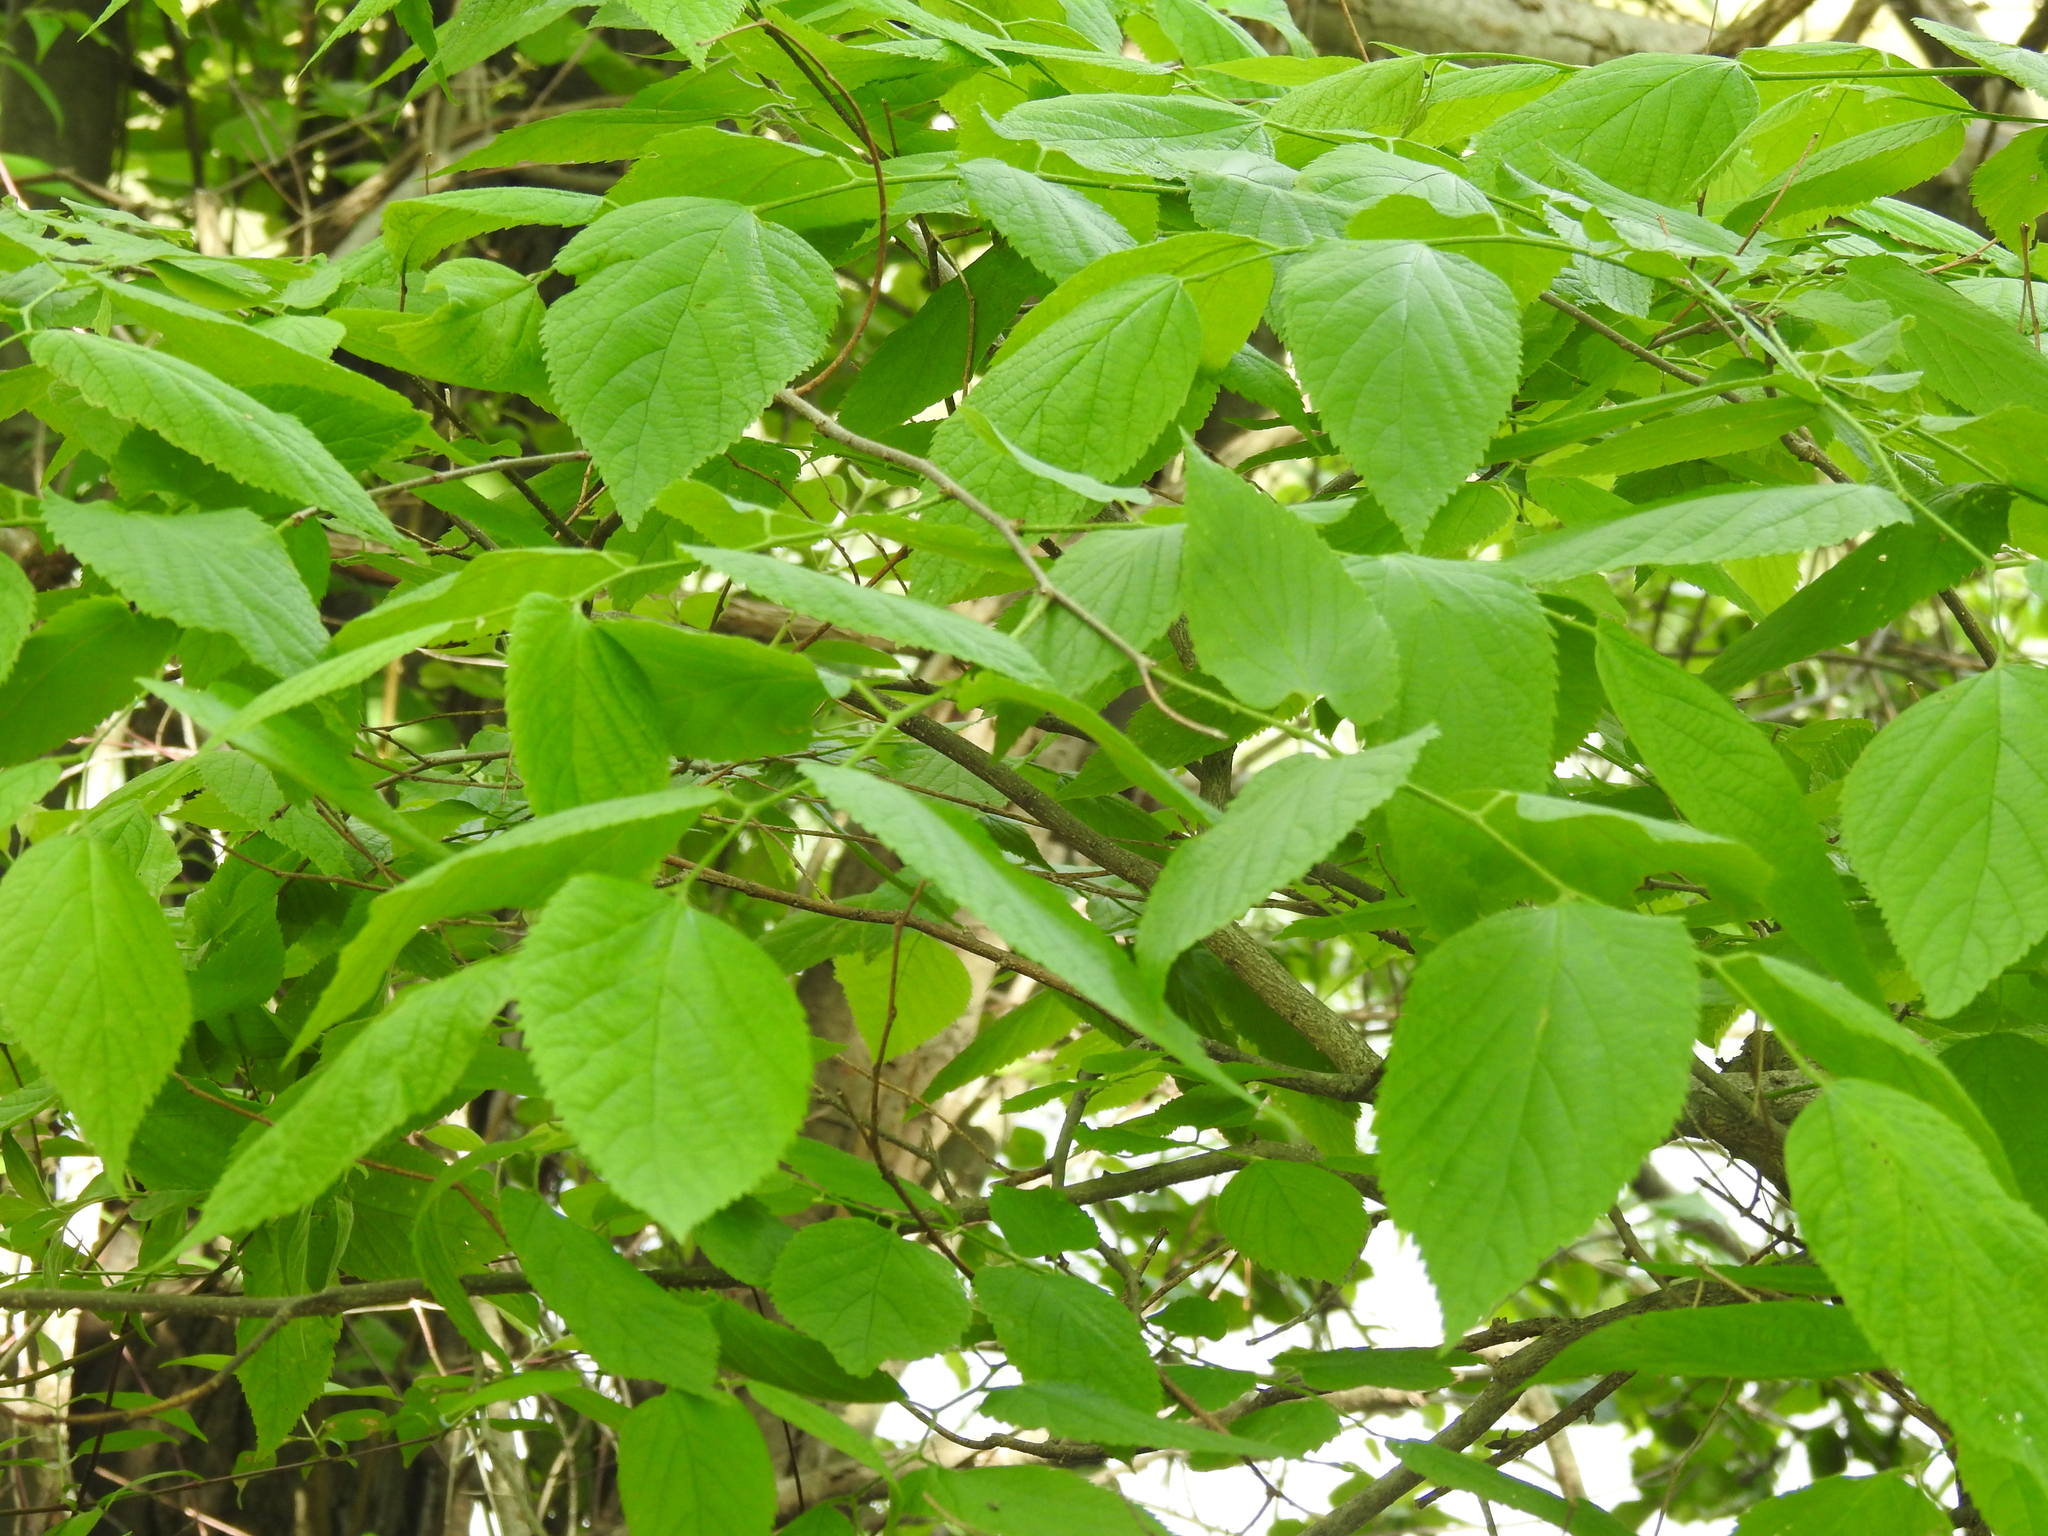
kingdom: Plantae
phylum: Tracheophyta
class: Magnoliopsida
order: Rosales
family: Cannabaceae
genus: Celtis
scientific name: Celtis occidentalis
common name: Common hackberry
